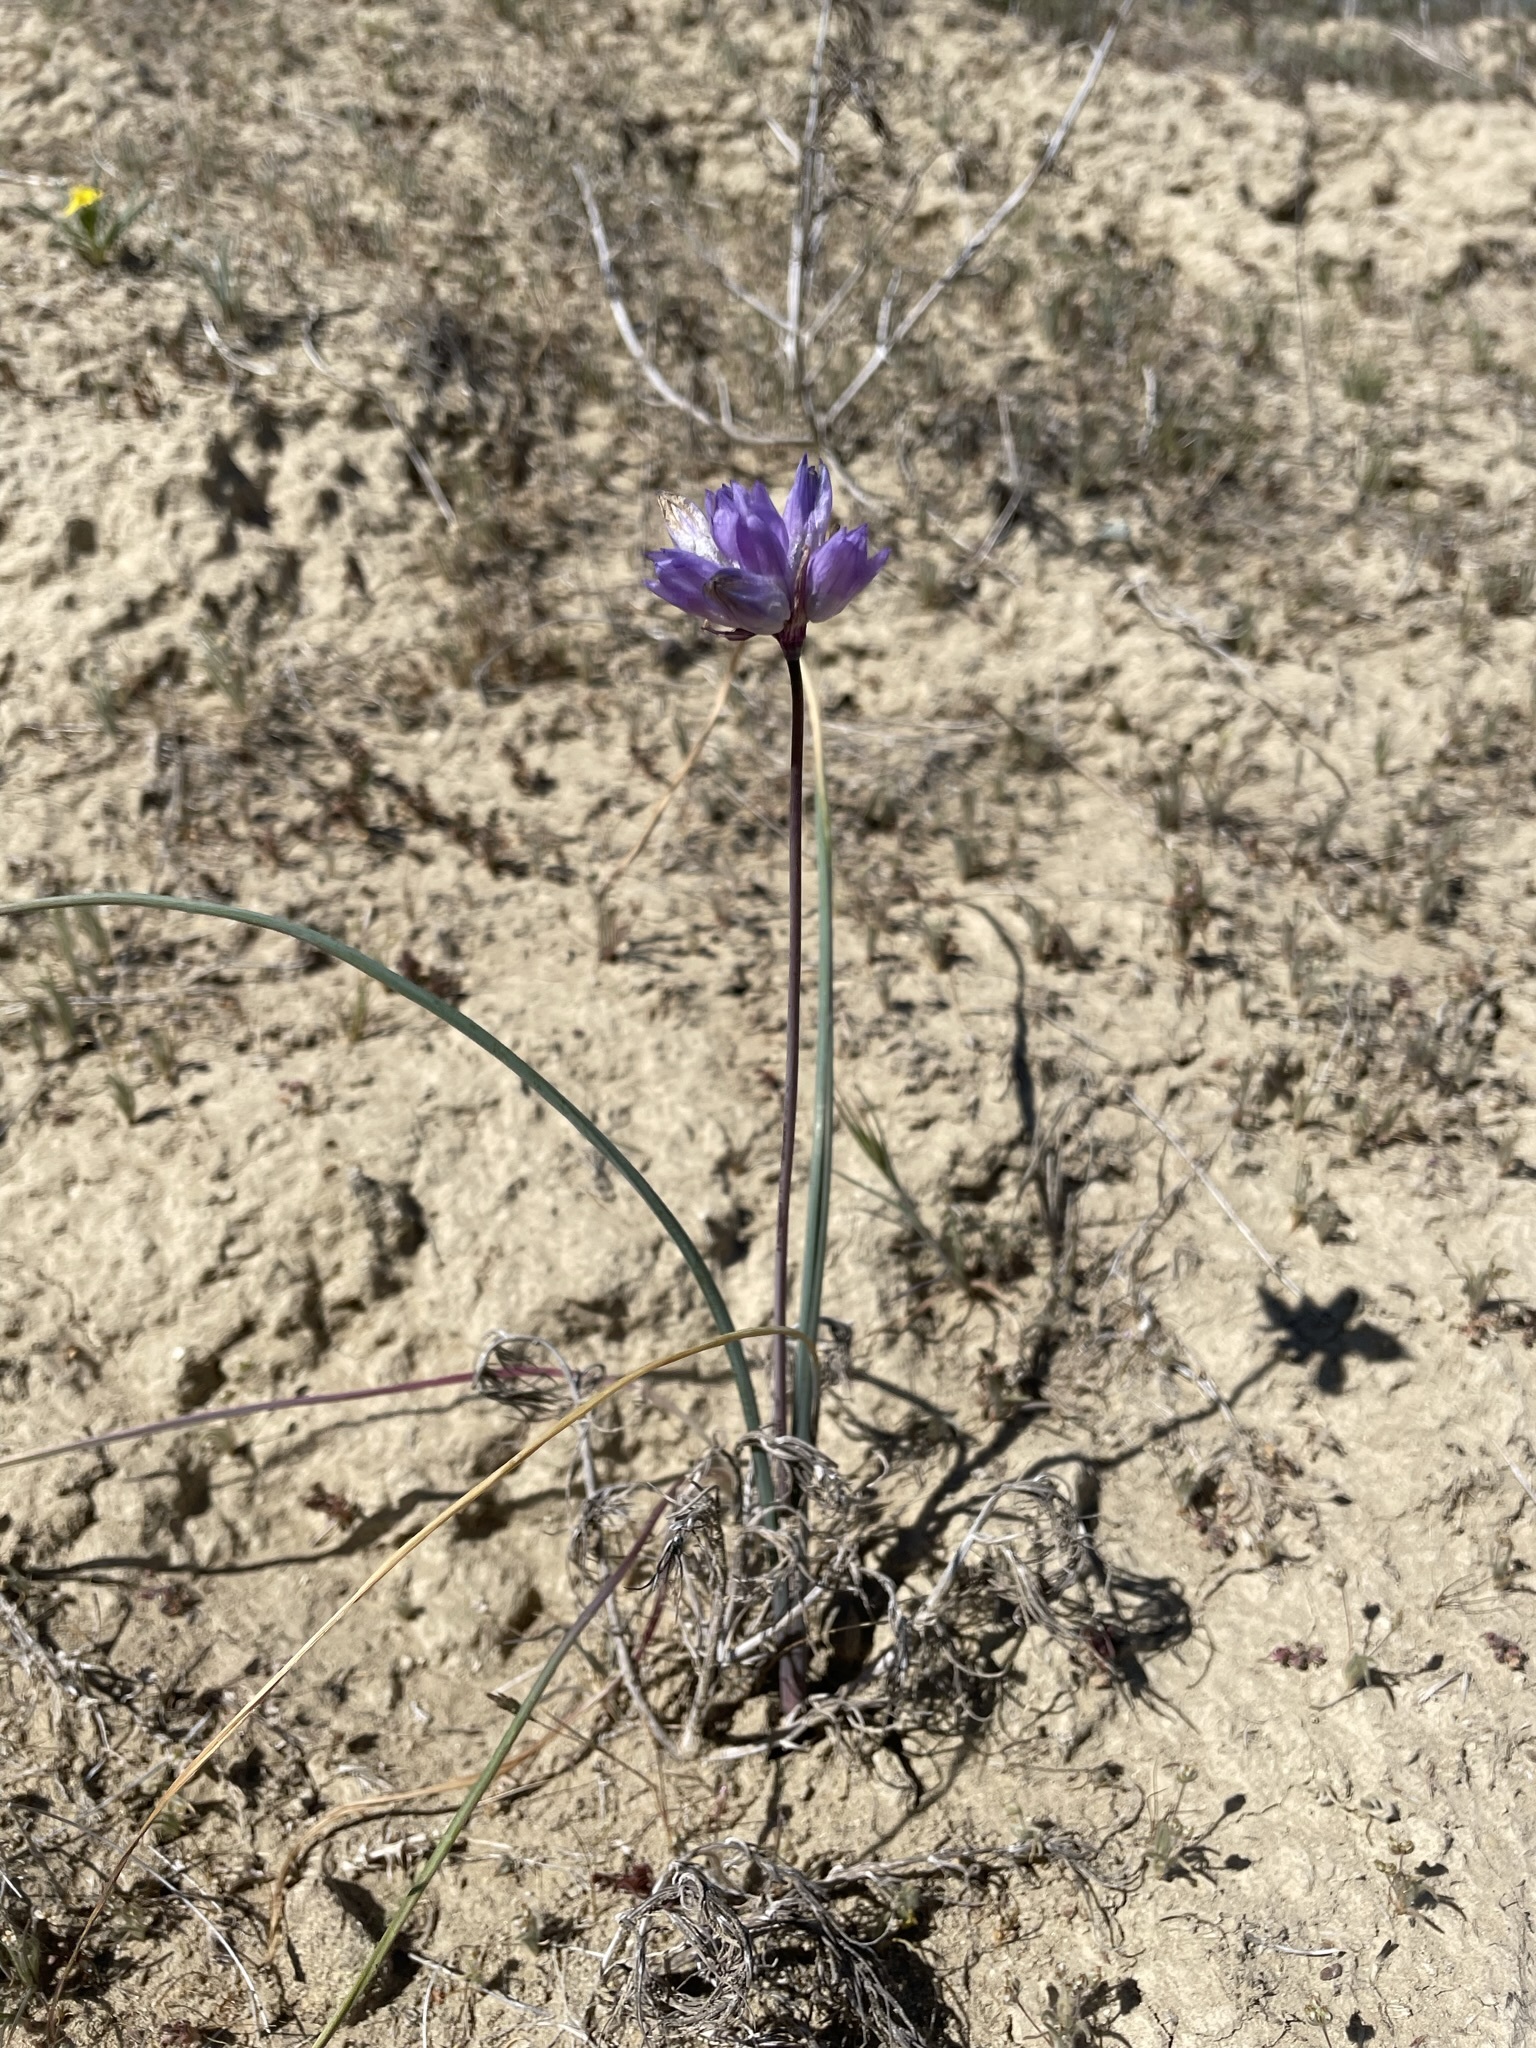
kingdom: Plantae
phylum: Tracheophyta
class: Liliopsida
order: Asparagales
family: Asparagaceae
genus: Dipterostemon
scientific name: Dipterostemon capitatus
